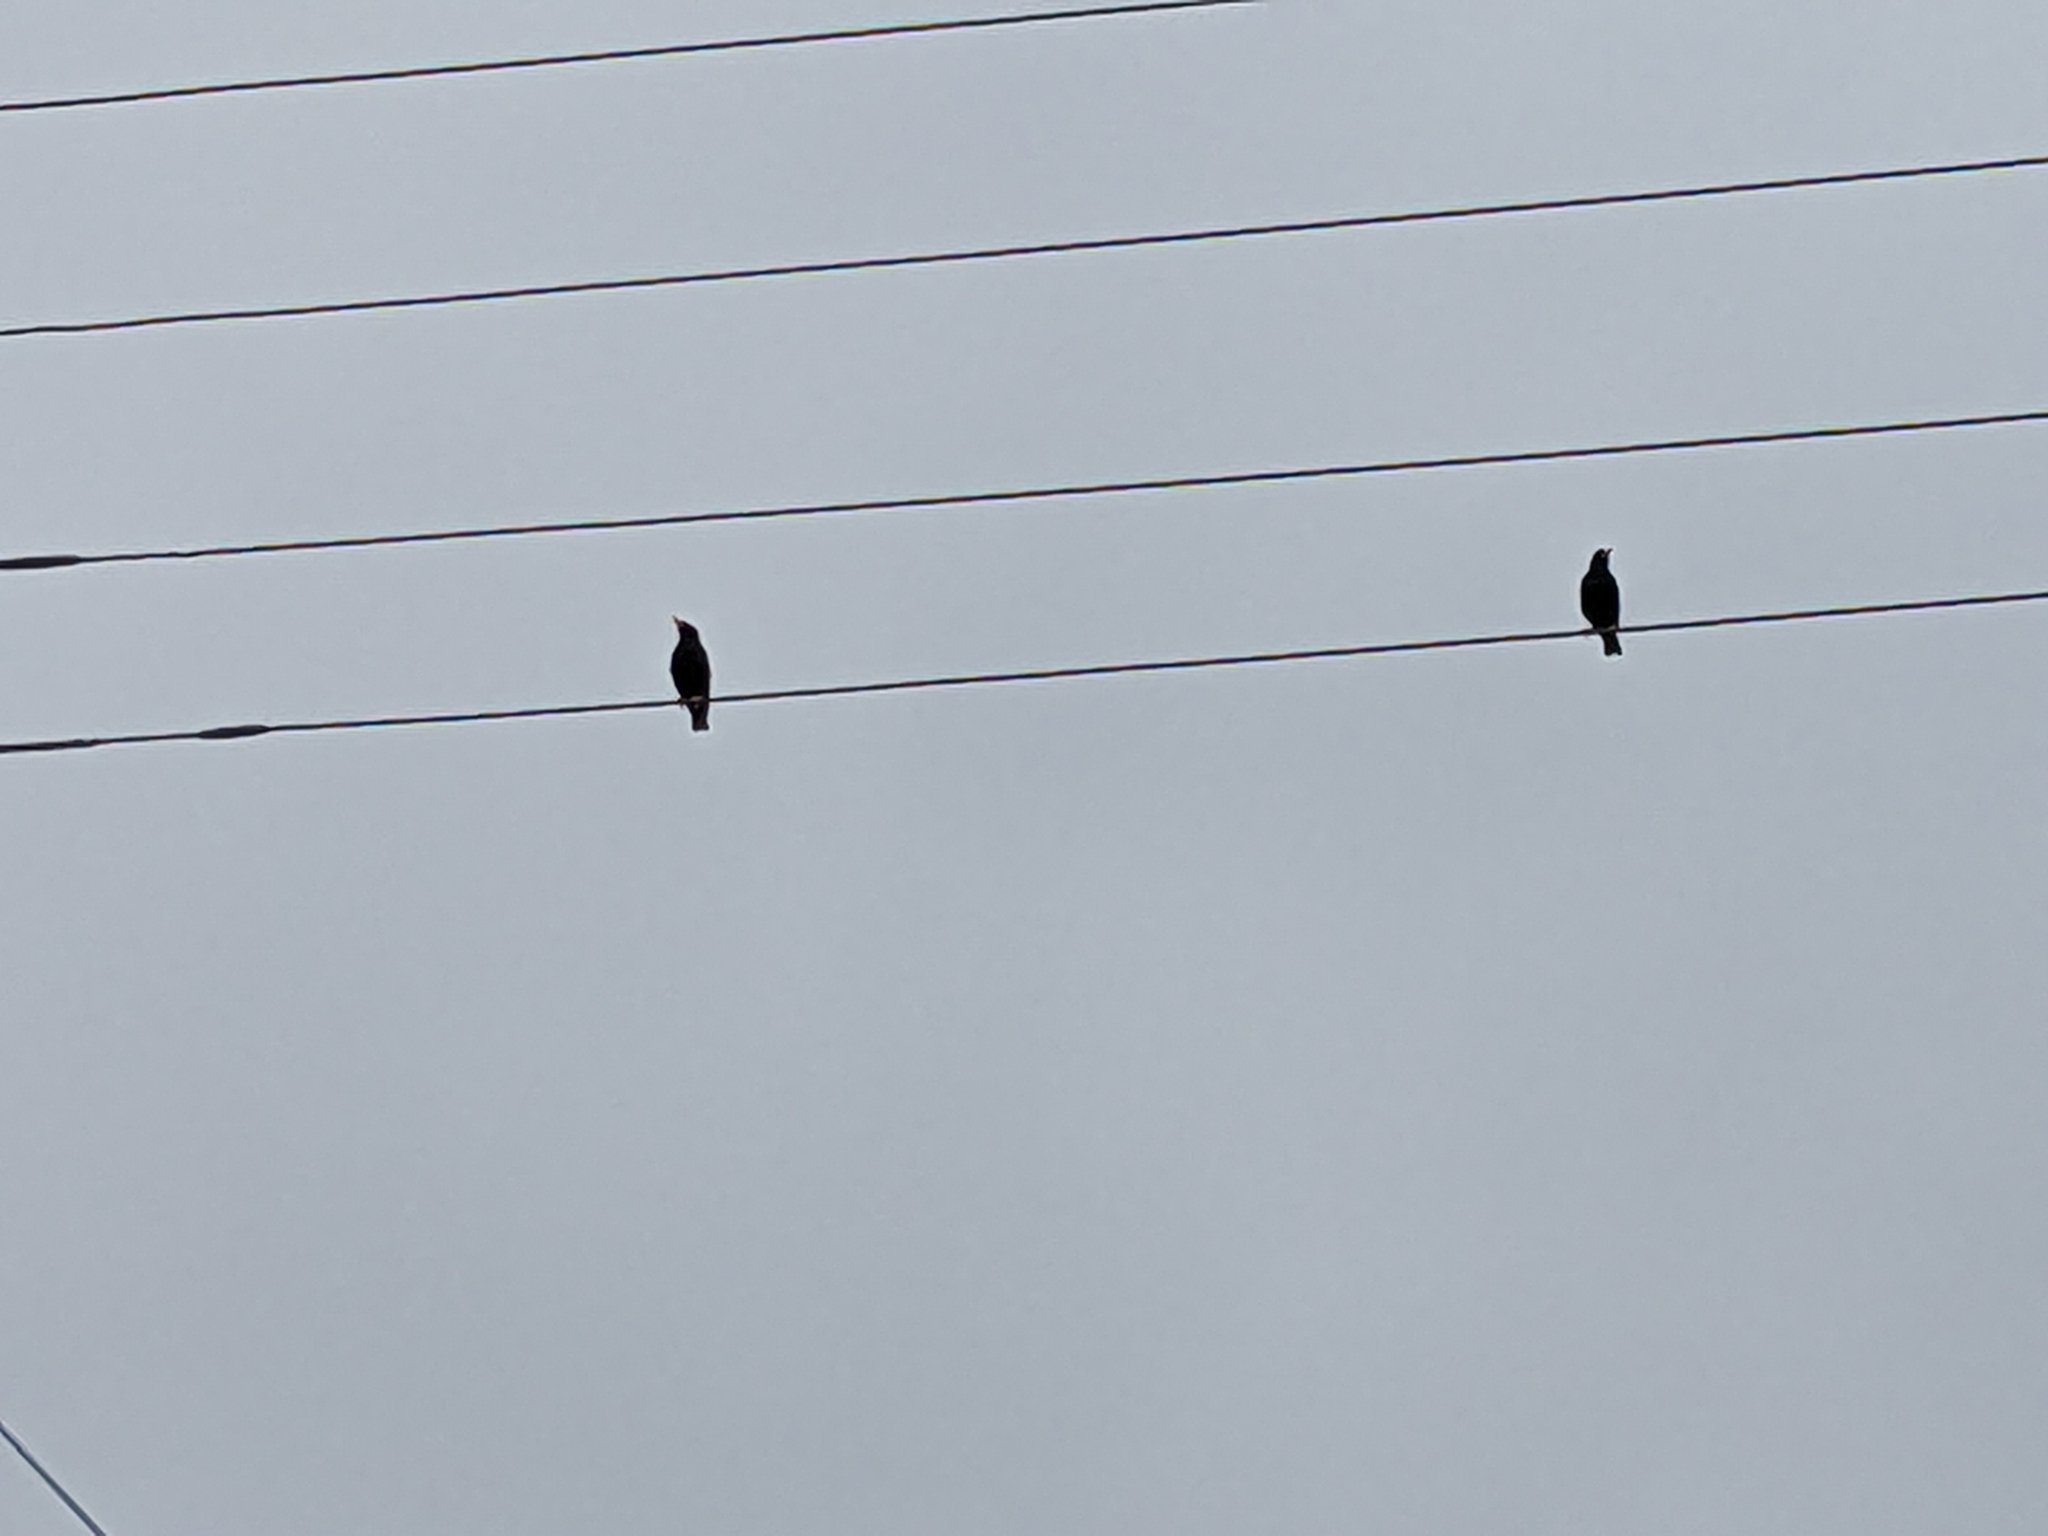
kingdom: Animalia
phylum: Chordata
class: Aves
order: Passeriformes
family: Sturnidae
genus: Sturnus
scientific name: Sturnus vulgaris
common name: Common starling
